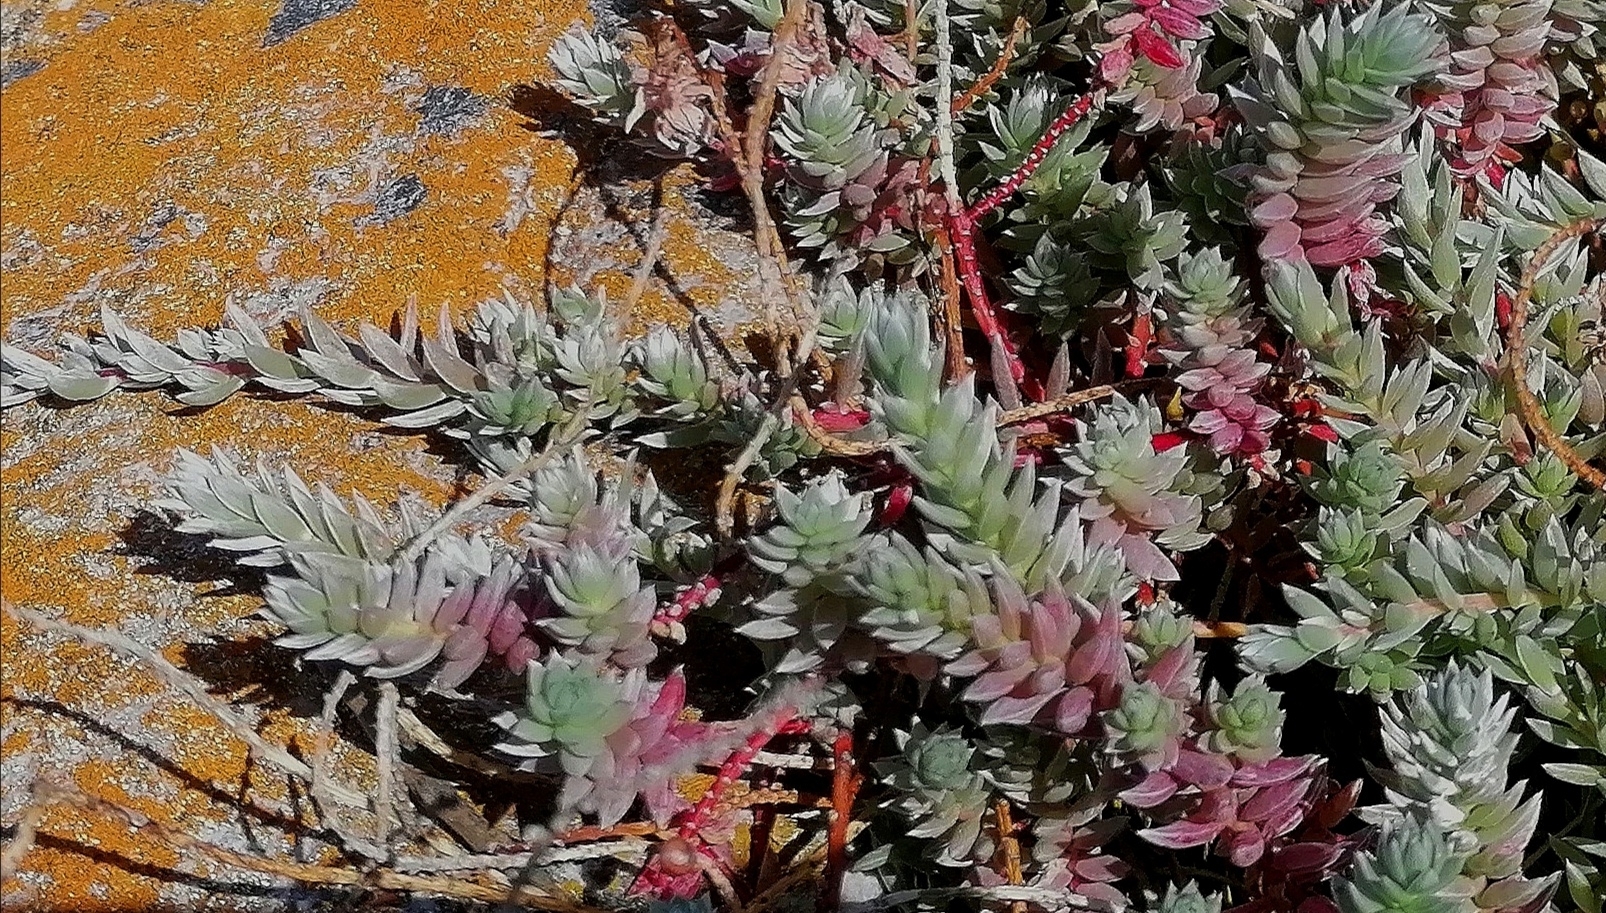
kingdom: Plantae
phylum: Tracheophyta
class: Magnoliopsida
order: Caryophyllales
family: Amaranthaceae
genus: Chenolea
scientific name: Chenolea diffusa
